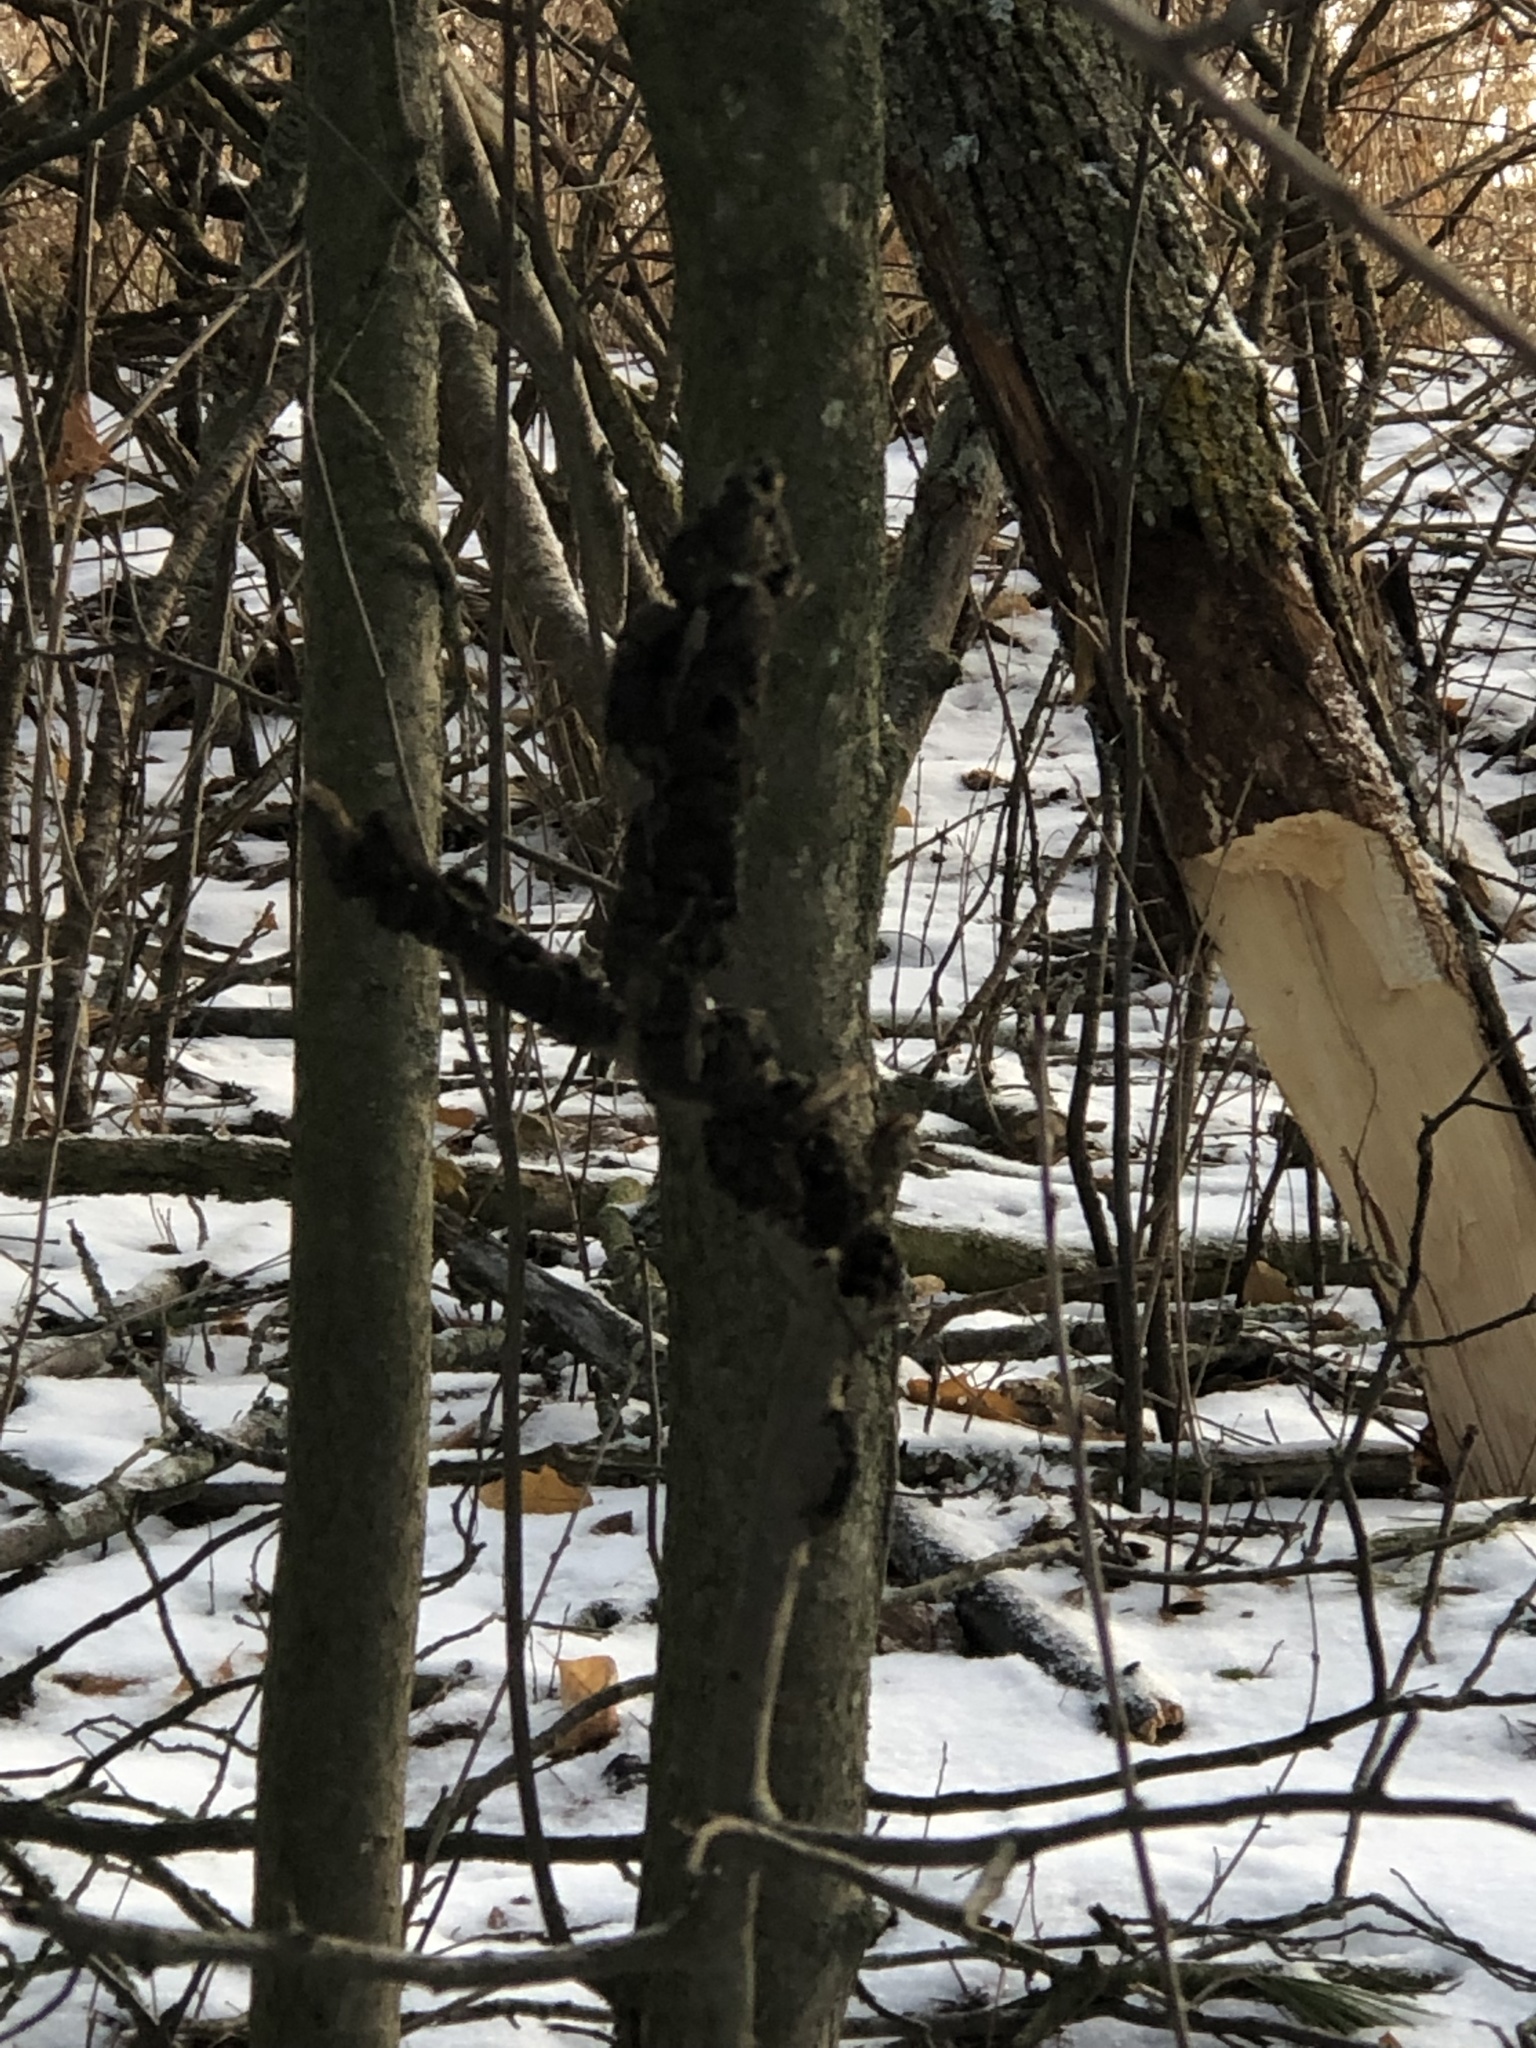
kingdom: Fungi
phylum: Ascomycota
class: Dothideomycetes
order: Venturiales
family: Venturiaceae
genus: Apiosporina
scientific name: Apiosporina morbosa
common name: Black knot
